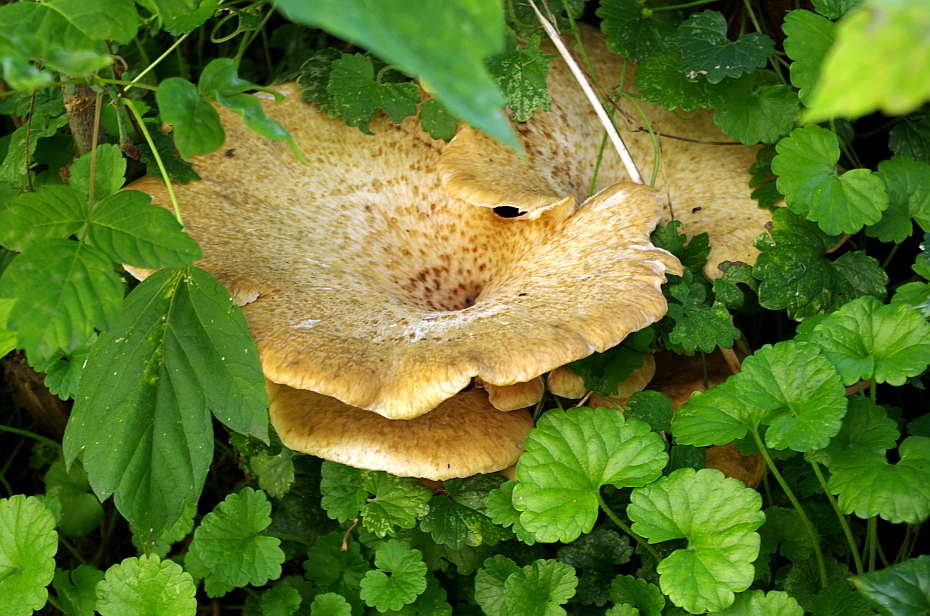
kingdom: Fungi
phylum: Basidiomycota
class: Agaricomycetes
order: Polyporales
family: Polyporaceae
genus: Cerioporus
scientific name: Cerioporus squamosus
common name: Dryad's saddle
